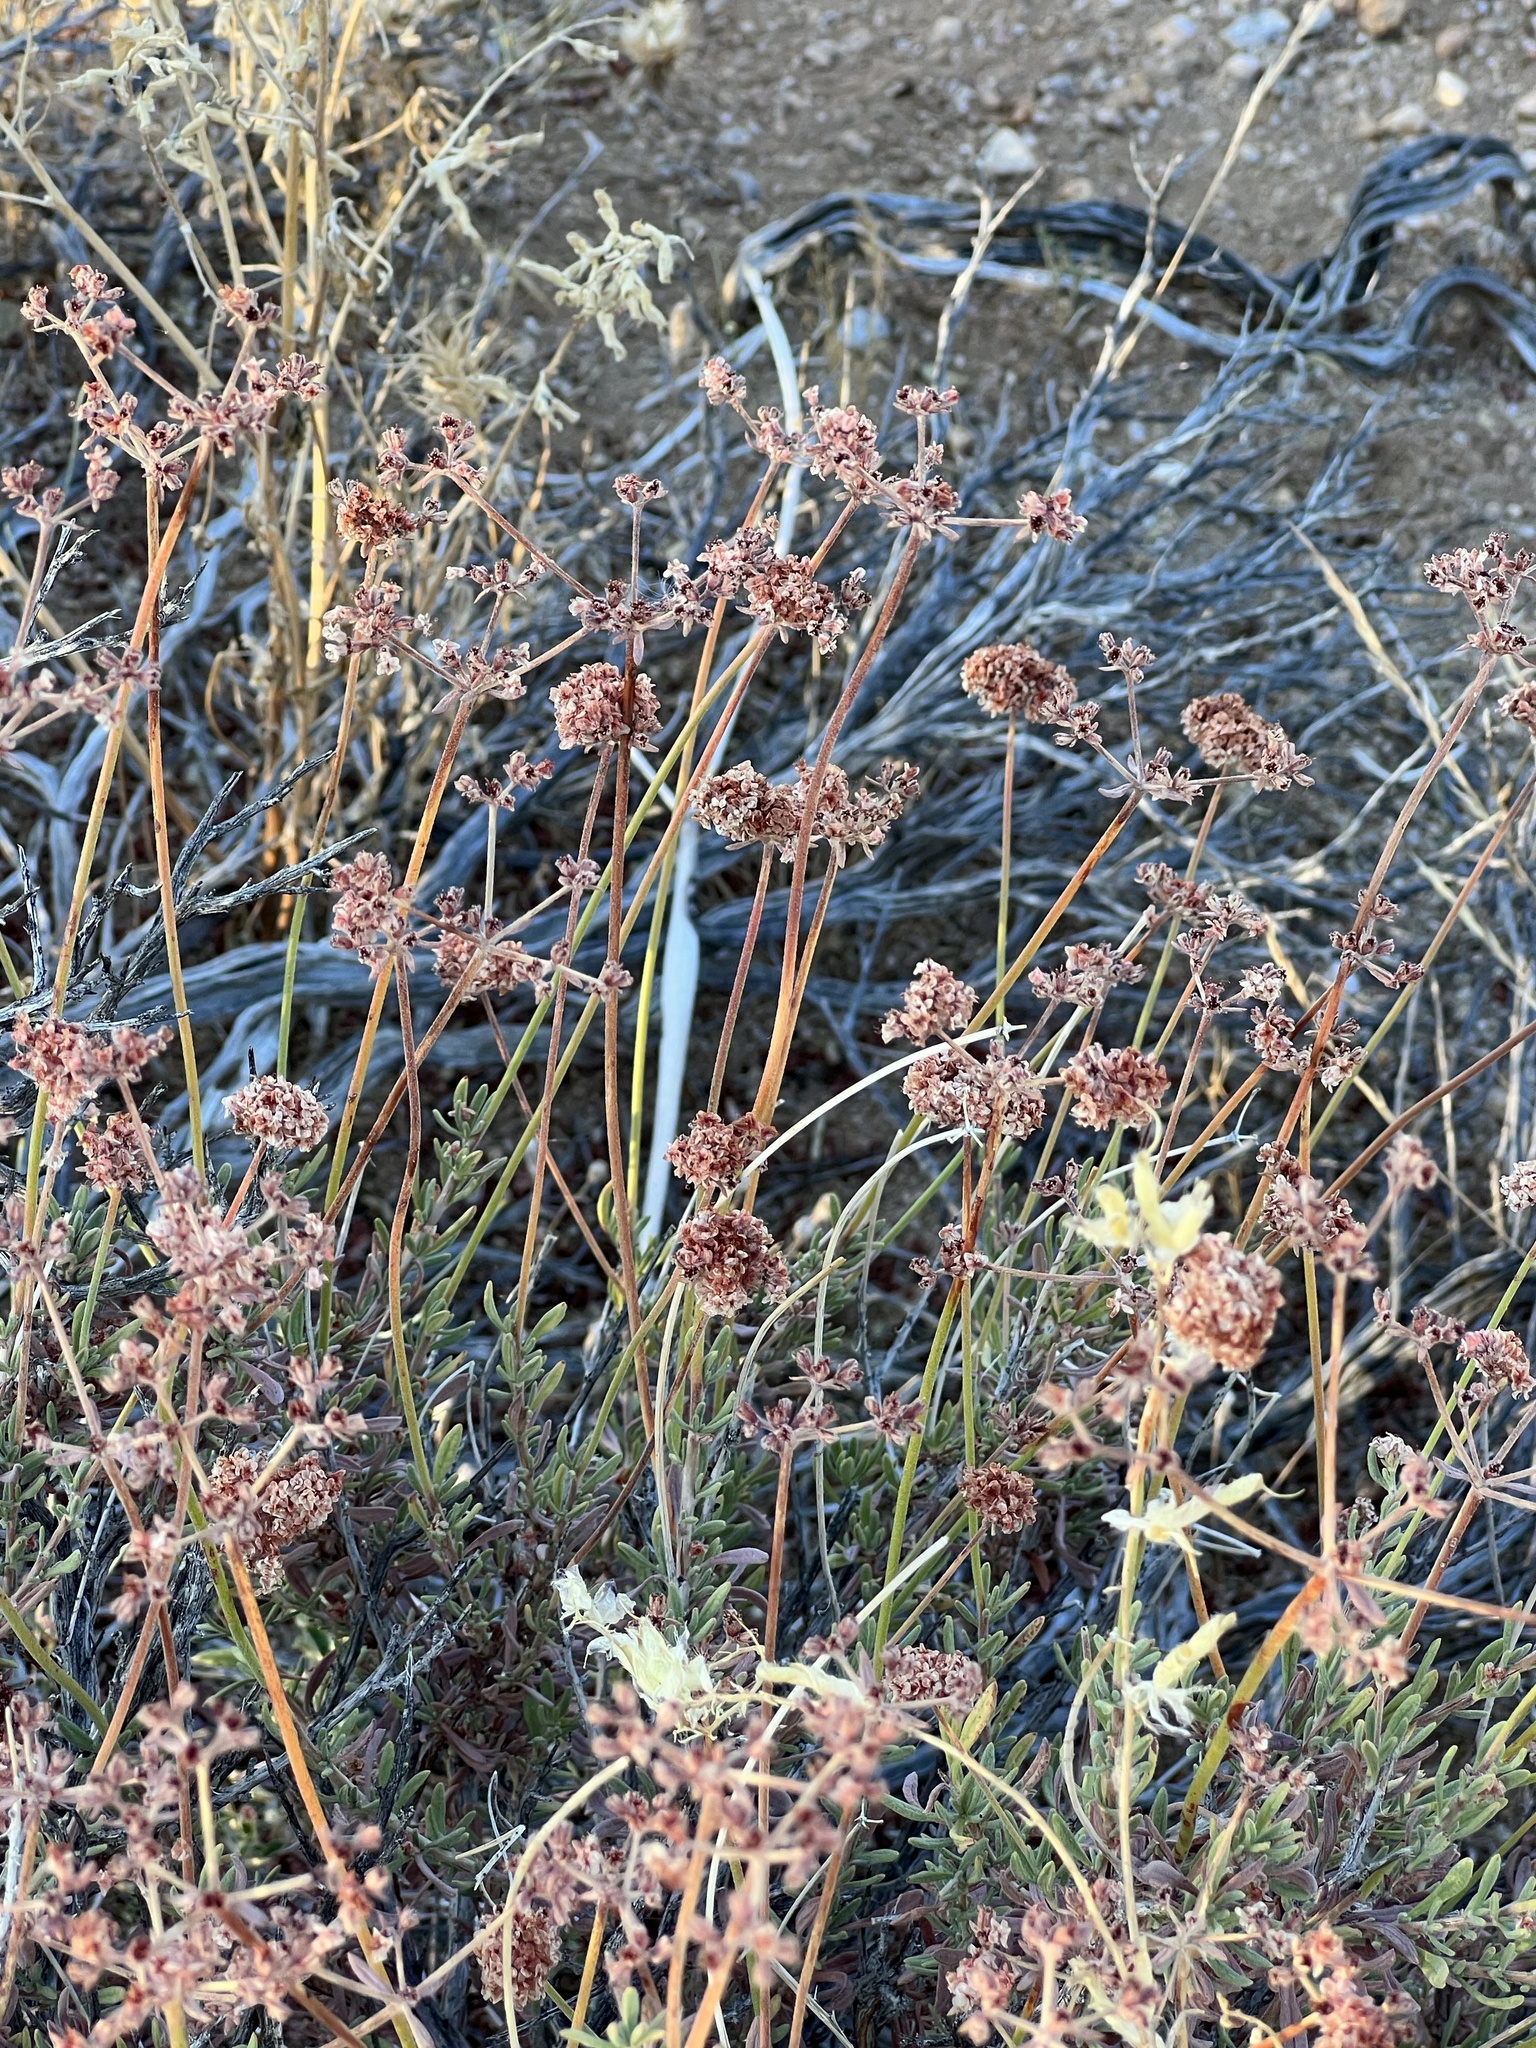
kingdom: Plantae
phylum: Tracheophyta
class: Magnoliopsida
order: Caryophyllales
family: Polygonaceae
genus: Eriogonum
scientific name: Eriogonum fasciculatum
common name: California wild buckwheat
